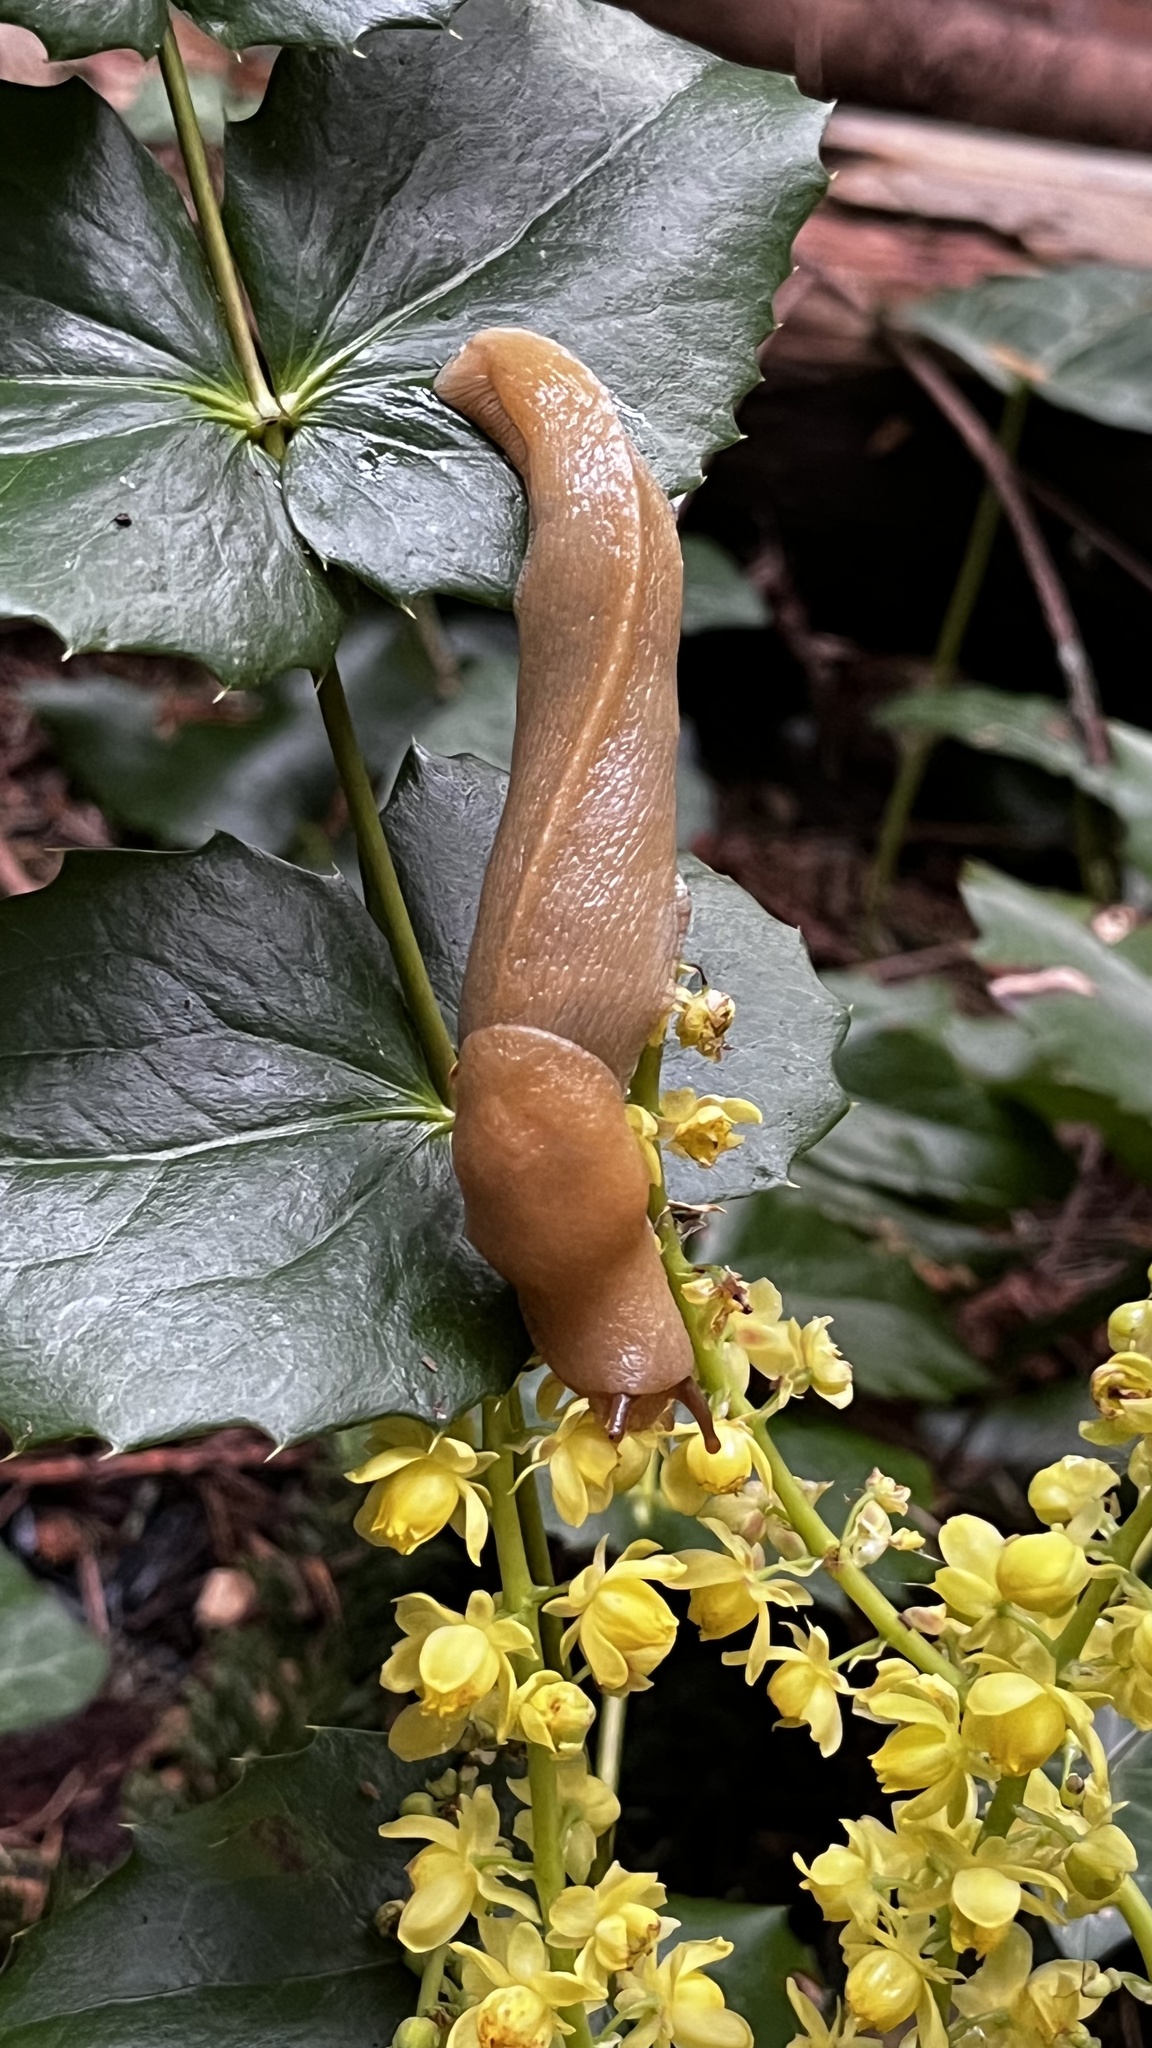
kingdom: Animalia
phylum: Mollusca
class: Gastropoda
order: Stylommatophora
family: Ariolimacidae
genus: Ariolimax
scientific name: Ariolimax columbianus
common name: Pacific banana slug
